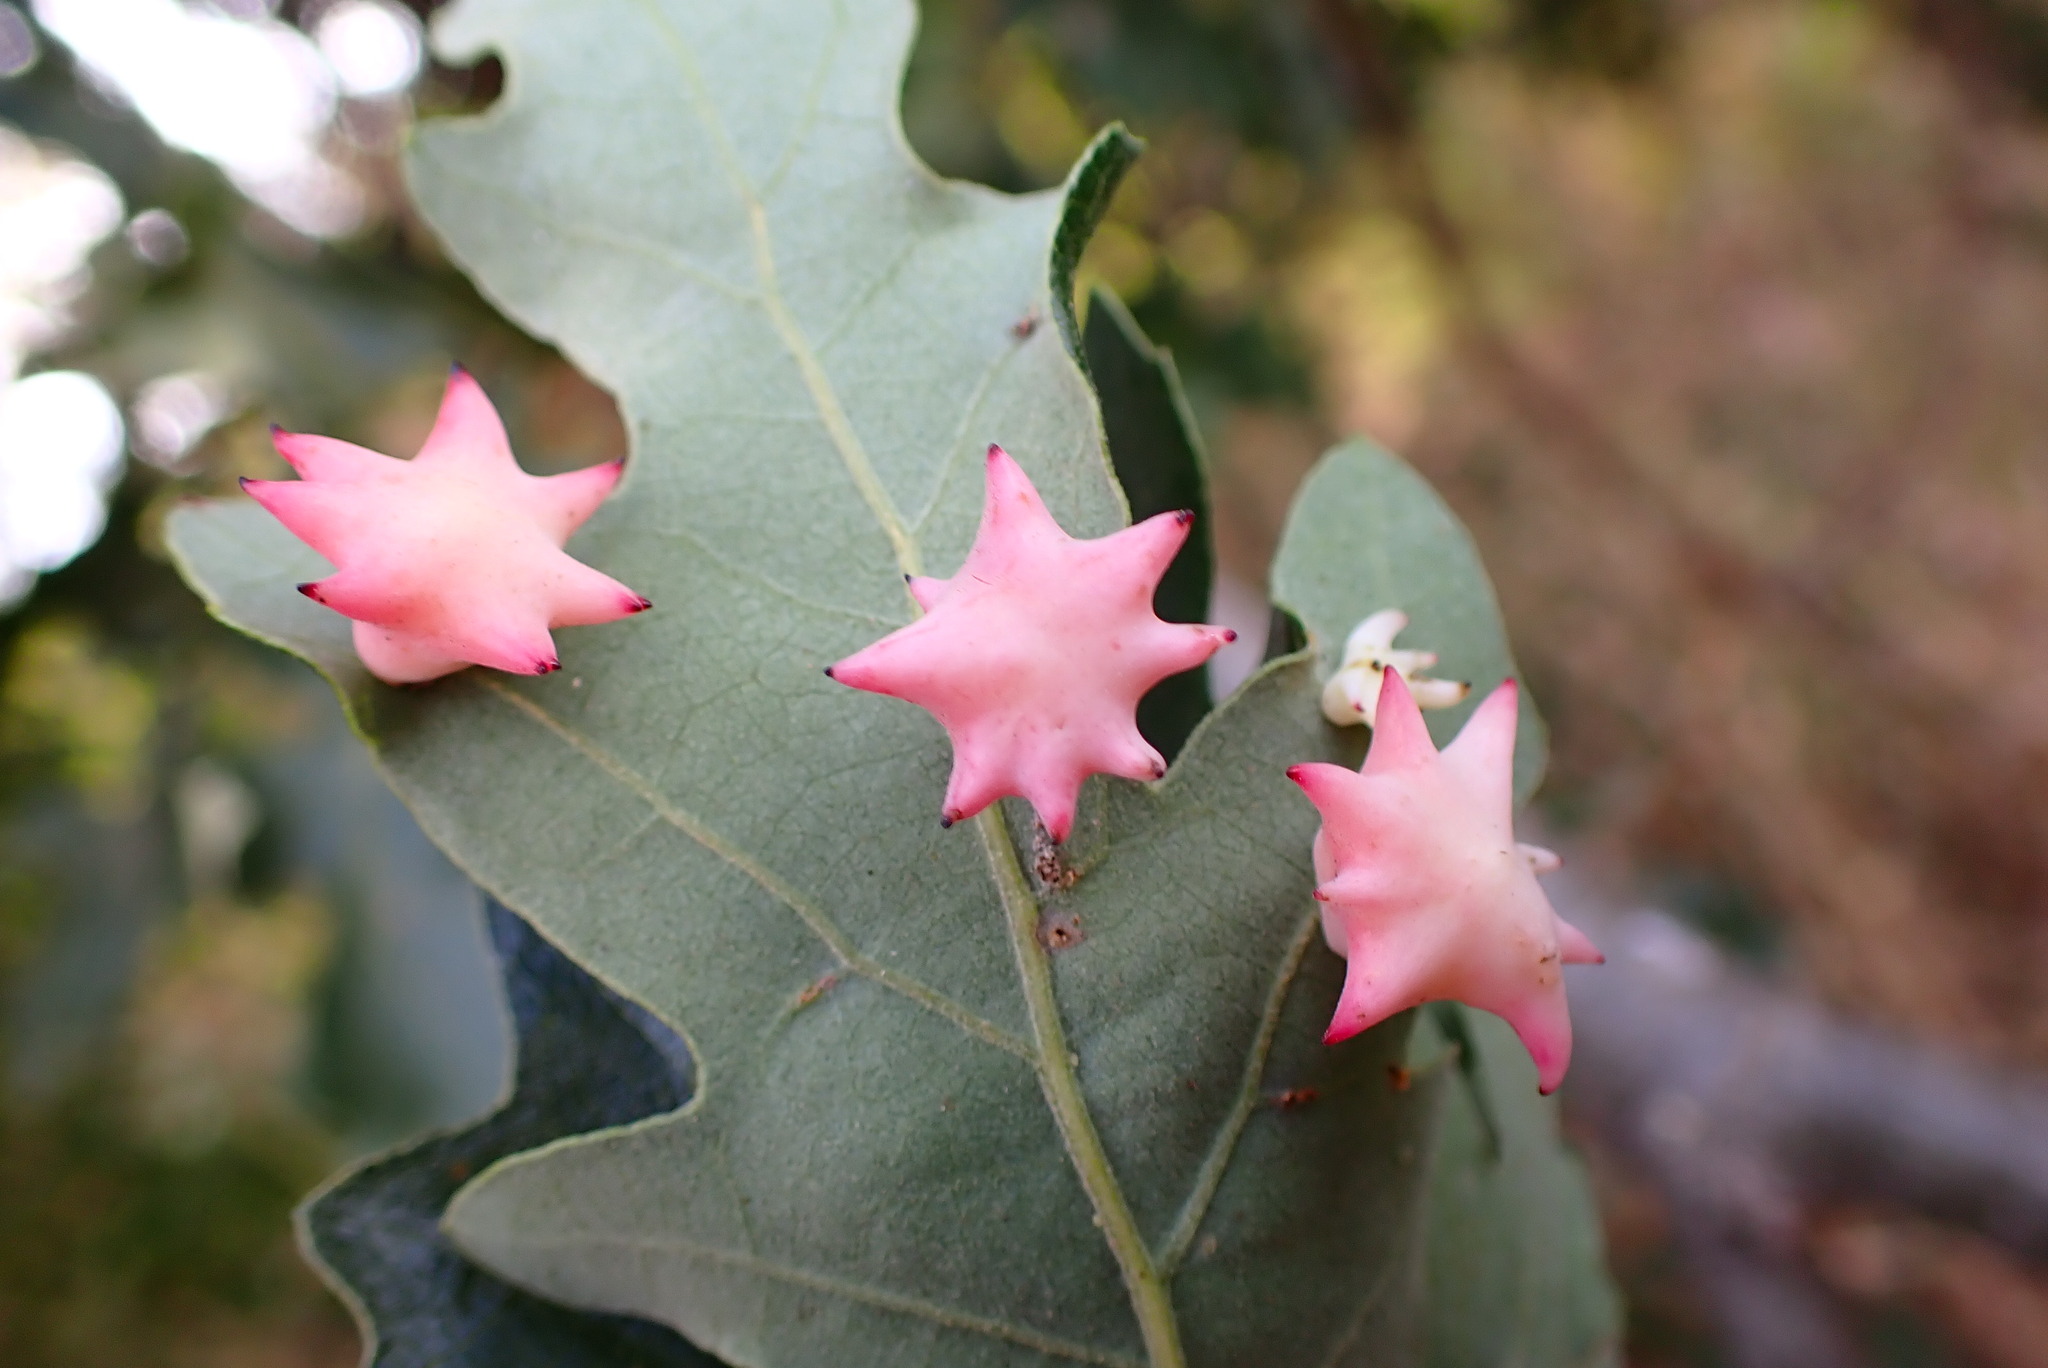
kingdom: Animalia
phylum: Arthropoda
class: Insecta
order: Hymenoptera
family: Cynipidae
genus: Cynips
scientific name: Cynips douglasi
